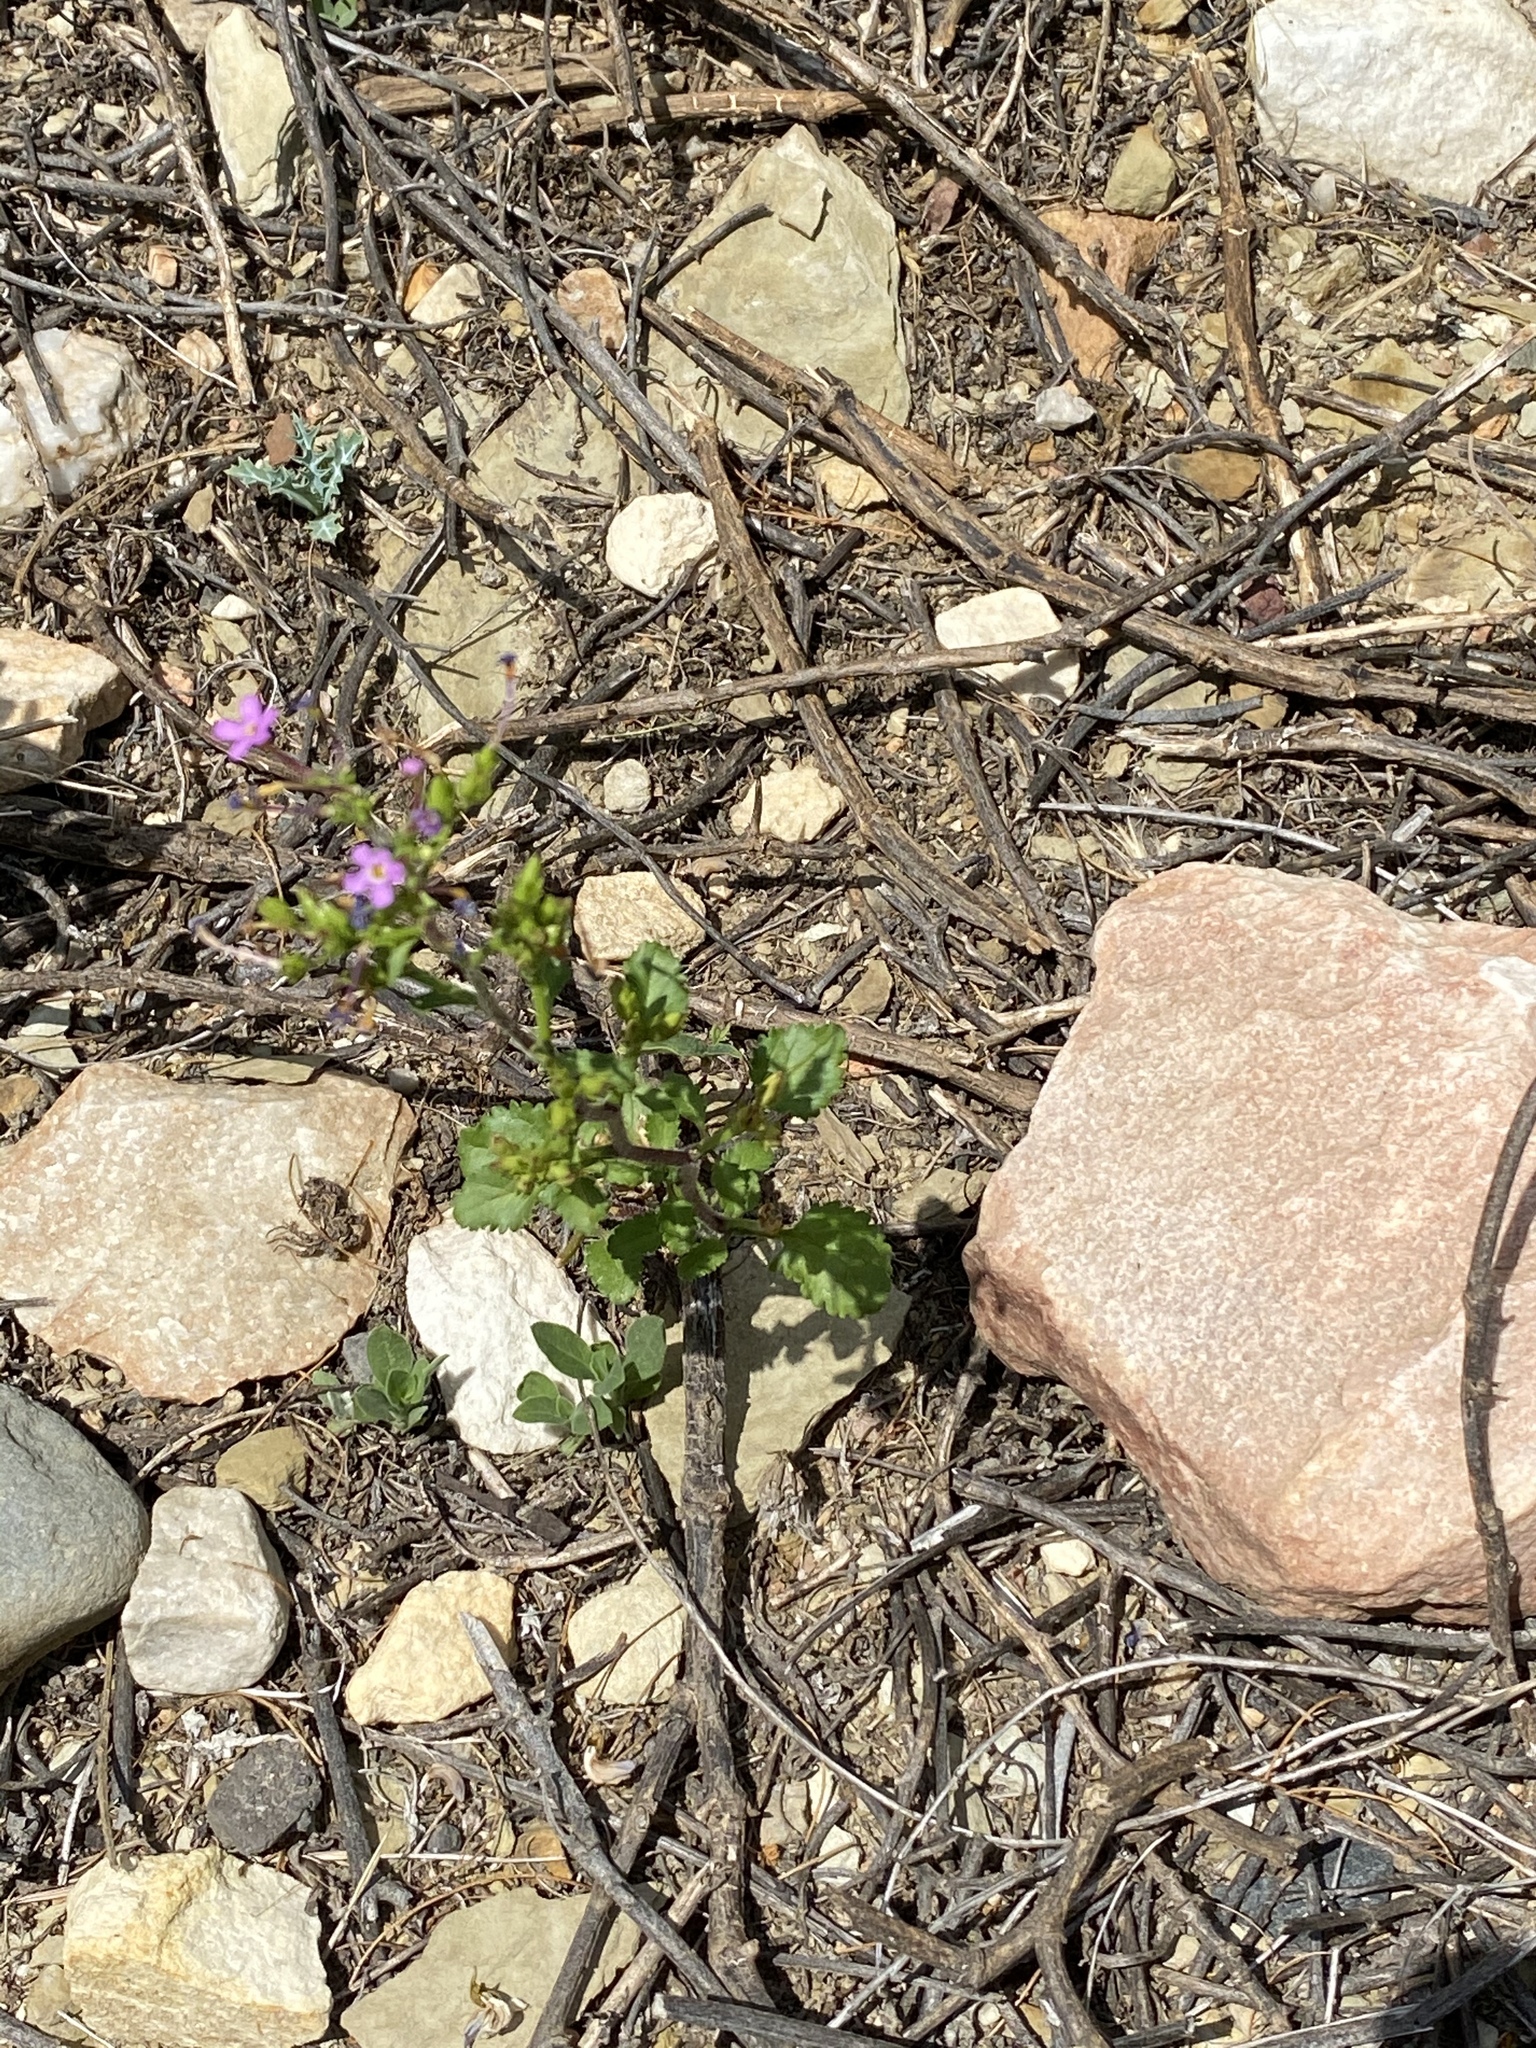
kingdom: Plantae
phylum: Tracheophyta
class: Magnoliopsida
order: Lamiales
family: Scrophulariaceae
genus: Sutera
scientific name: Sutera foetida
